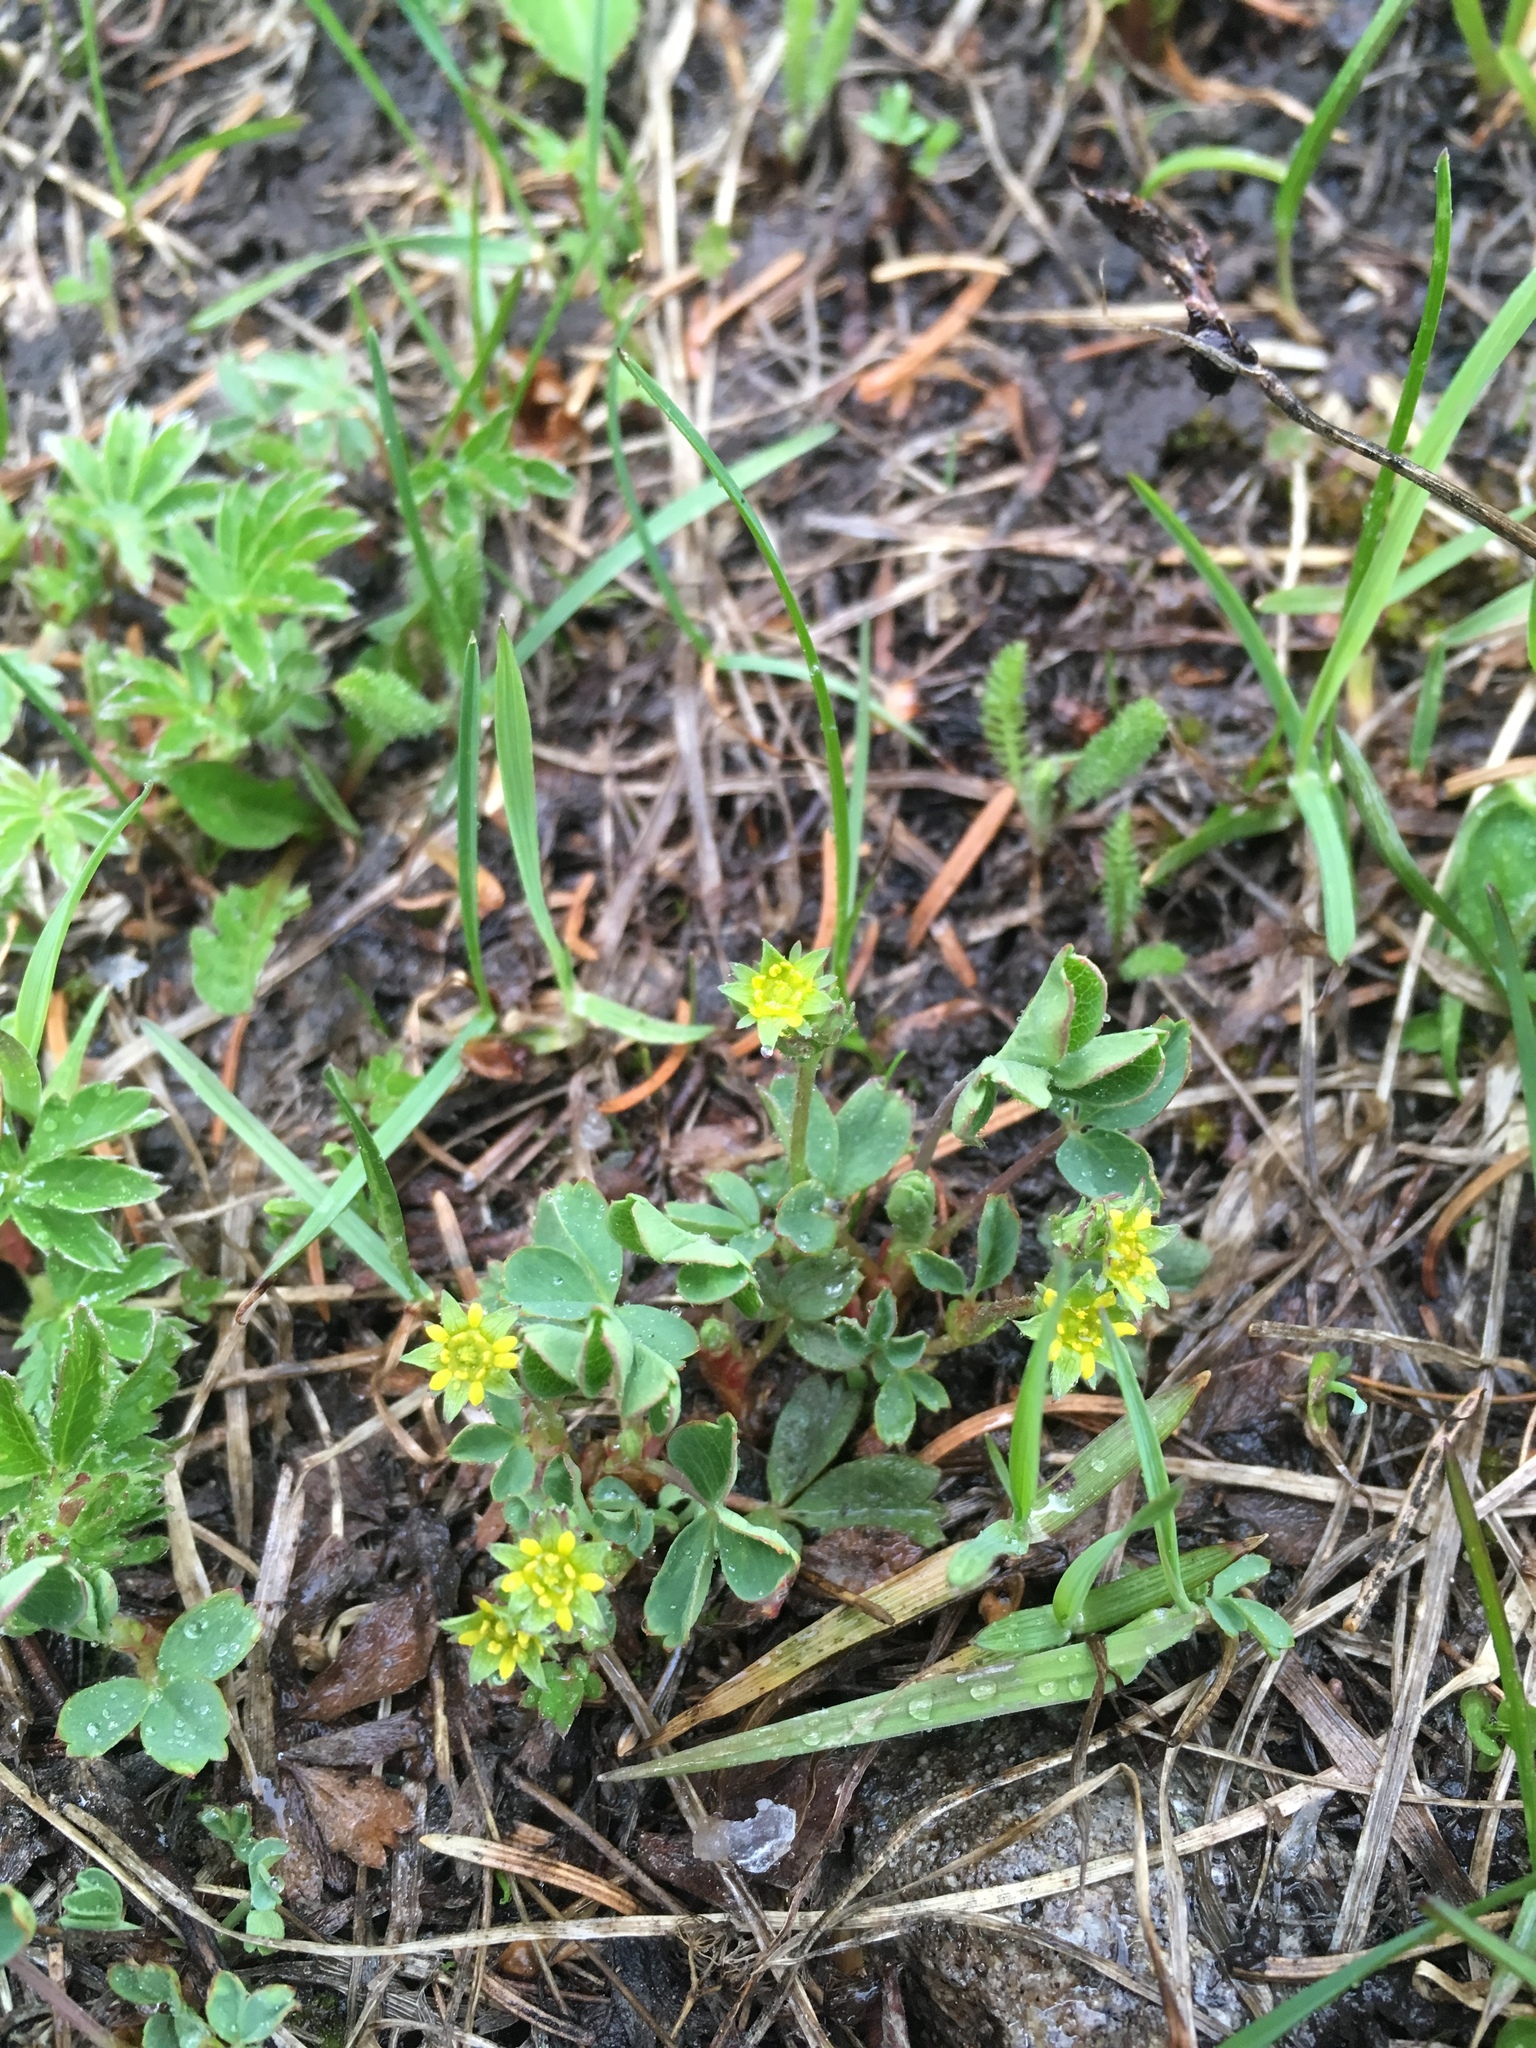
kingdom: Plantae
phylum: Tracheophyta
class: Magnoliopsida
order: Rosales
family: Rosaceae
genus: Sibbaldia
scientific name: Sibbaldia procumbens
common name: Creeping sibbaldia
